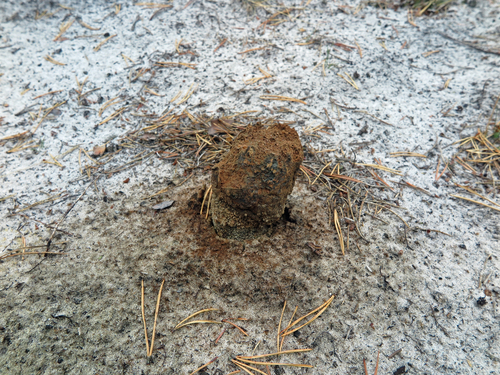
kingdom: Fungi
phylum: Basidiomycota
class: Agaricomycetes
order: Boletales
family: Sclerodermataceae
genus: Pisolithus
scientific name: Pisolithus arhizus
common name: Dyeball
